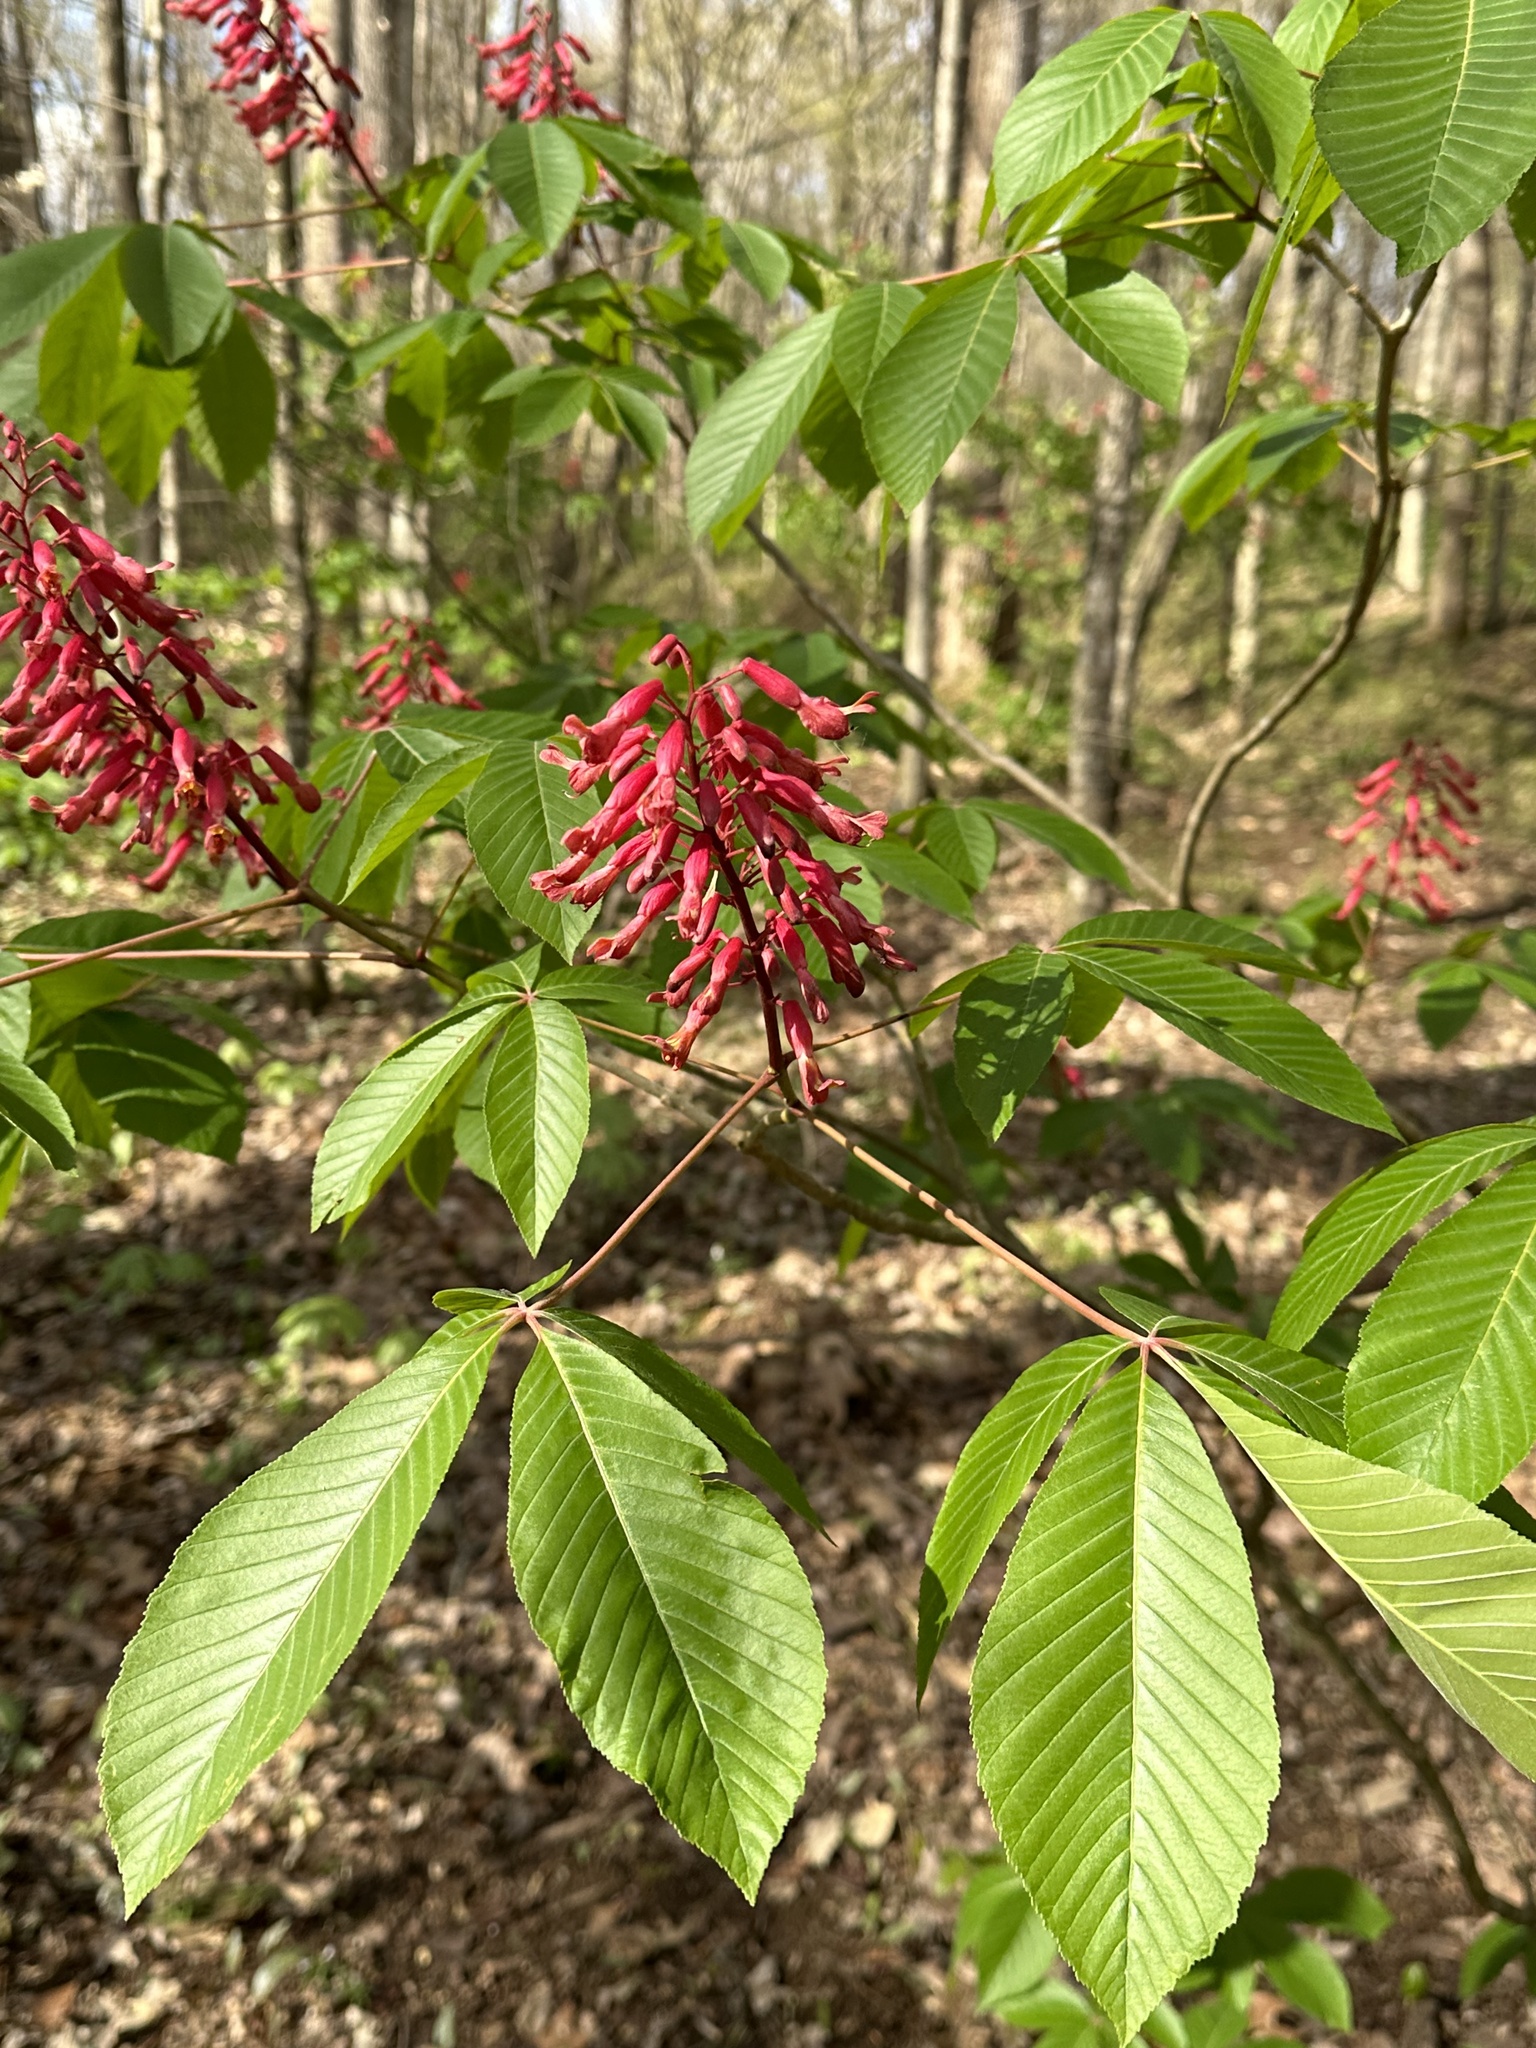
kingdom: Plantae
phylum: Tracheophyta
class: Magnoliopsida
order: Sapindales
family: Sapindaceae
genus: Aesculus
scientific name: Aesculus pavia
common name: Red buckeye
